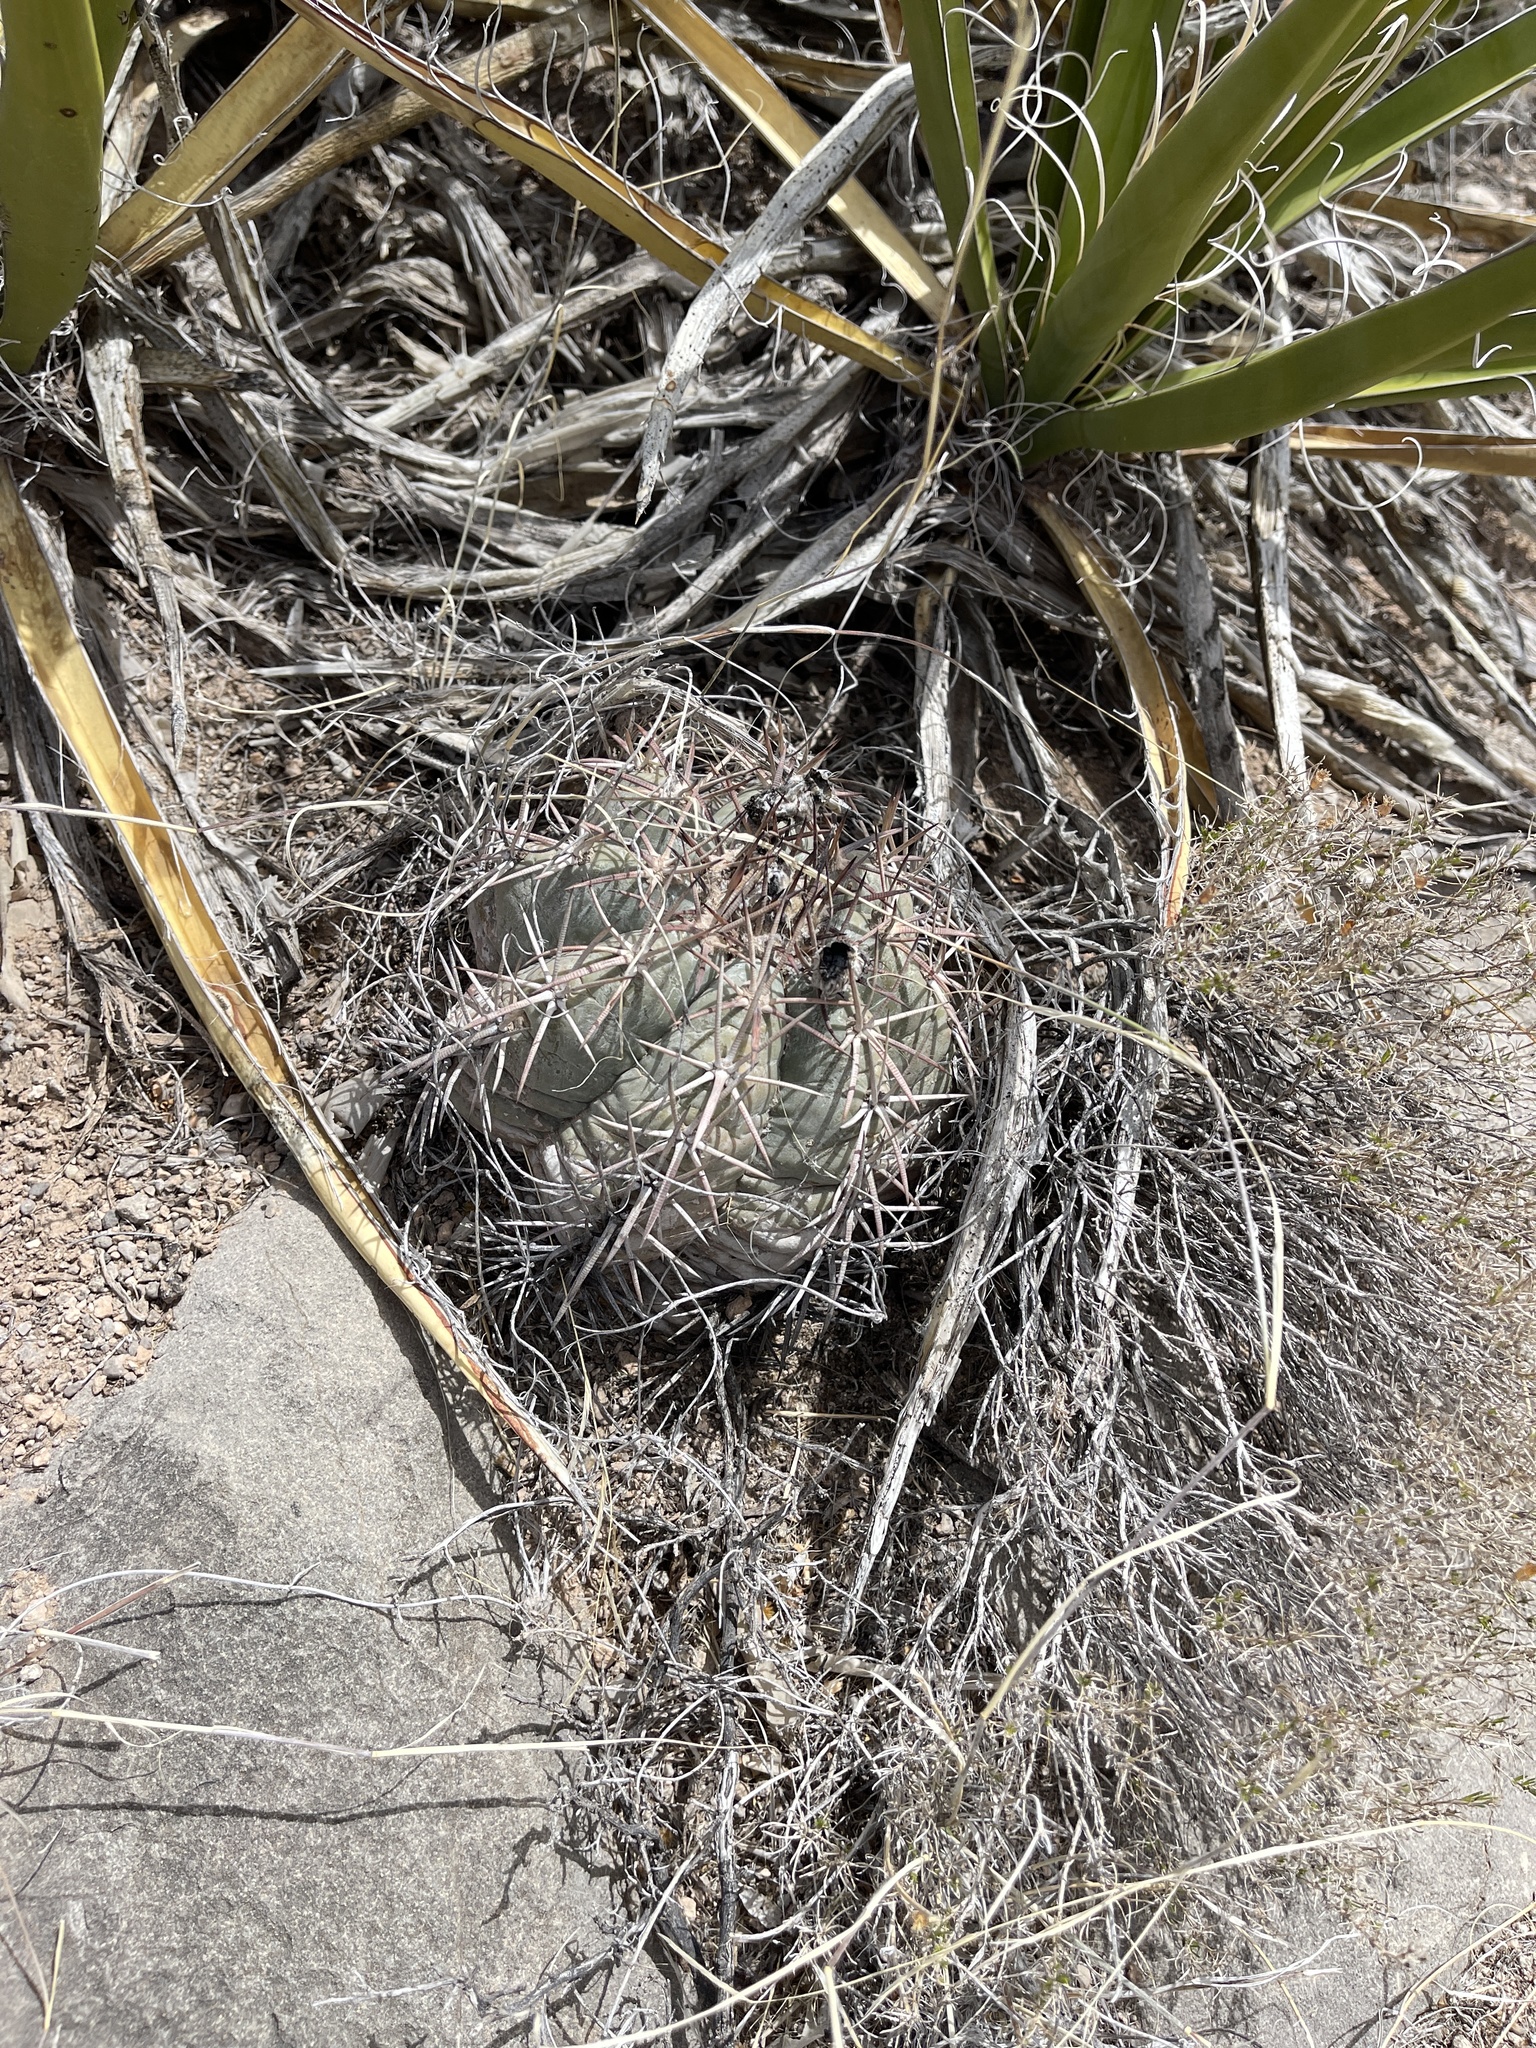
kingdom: Plantae
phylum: Tracheophyta
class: Magnoliopsida
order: Caryophyllales
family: Cactaceae
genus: Echinocactus
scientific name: Echinocactus horizonthalonius
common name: Devilshead
